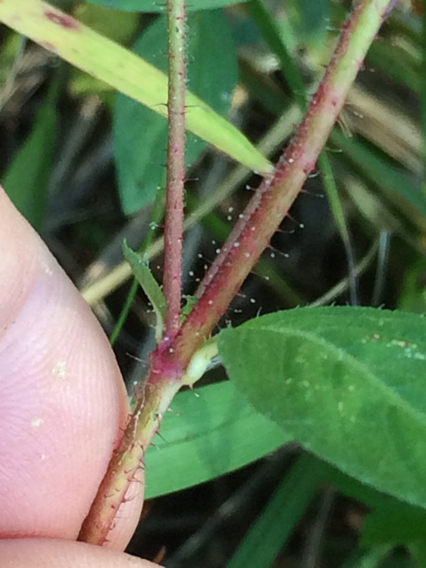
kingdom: Plantae
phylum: Tracheophyta
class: Magnoliopsida
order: Myrtales
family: Lythraceae
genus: Cuphea
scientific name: Cuphea carthagenensis
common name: Colombian waxweed
